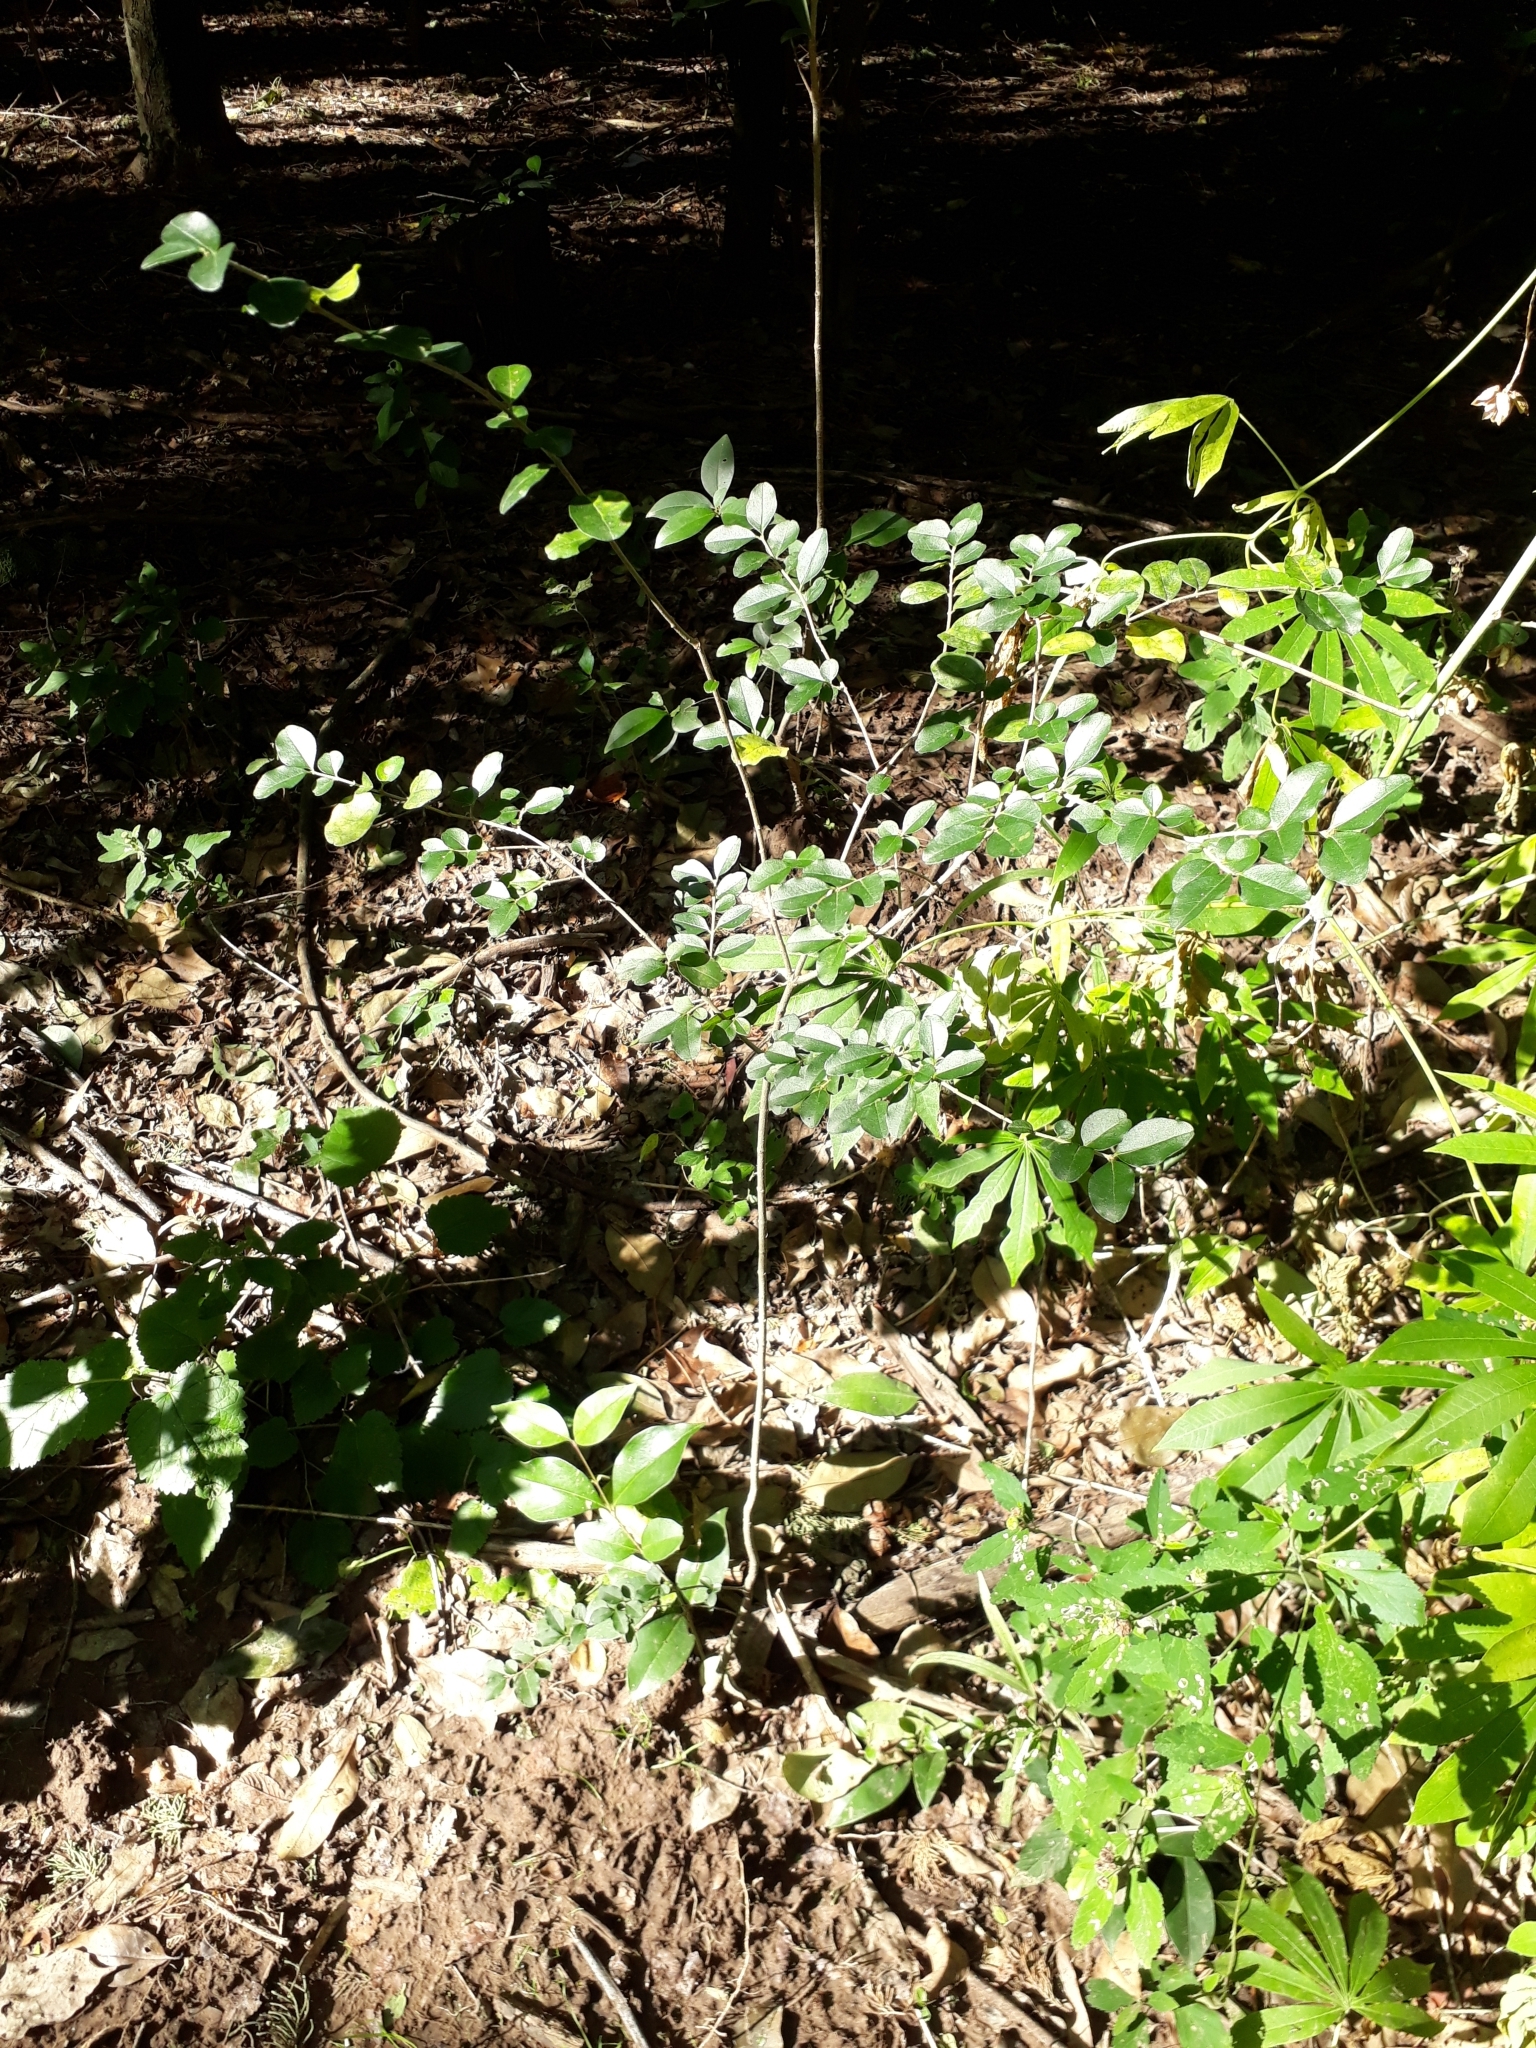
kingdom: Plantae
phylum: Tracheophyta
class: Magnoliopsida
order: Lamiales
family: Oleaceae
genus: Ligustrum
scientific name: Ligustrum sinense
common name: Chinese privet
